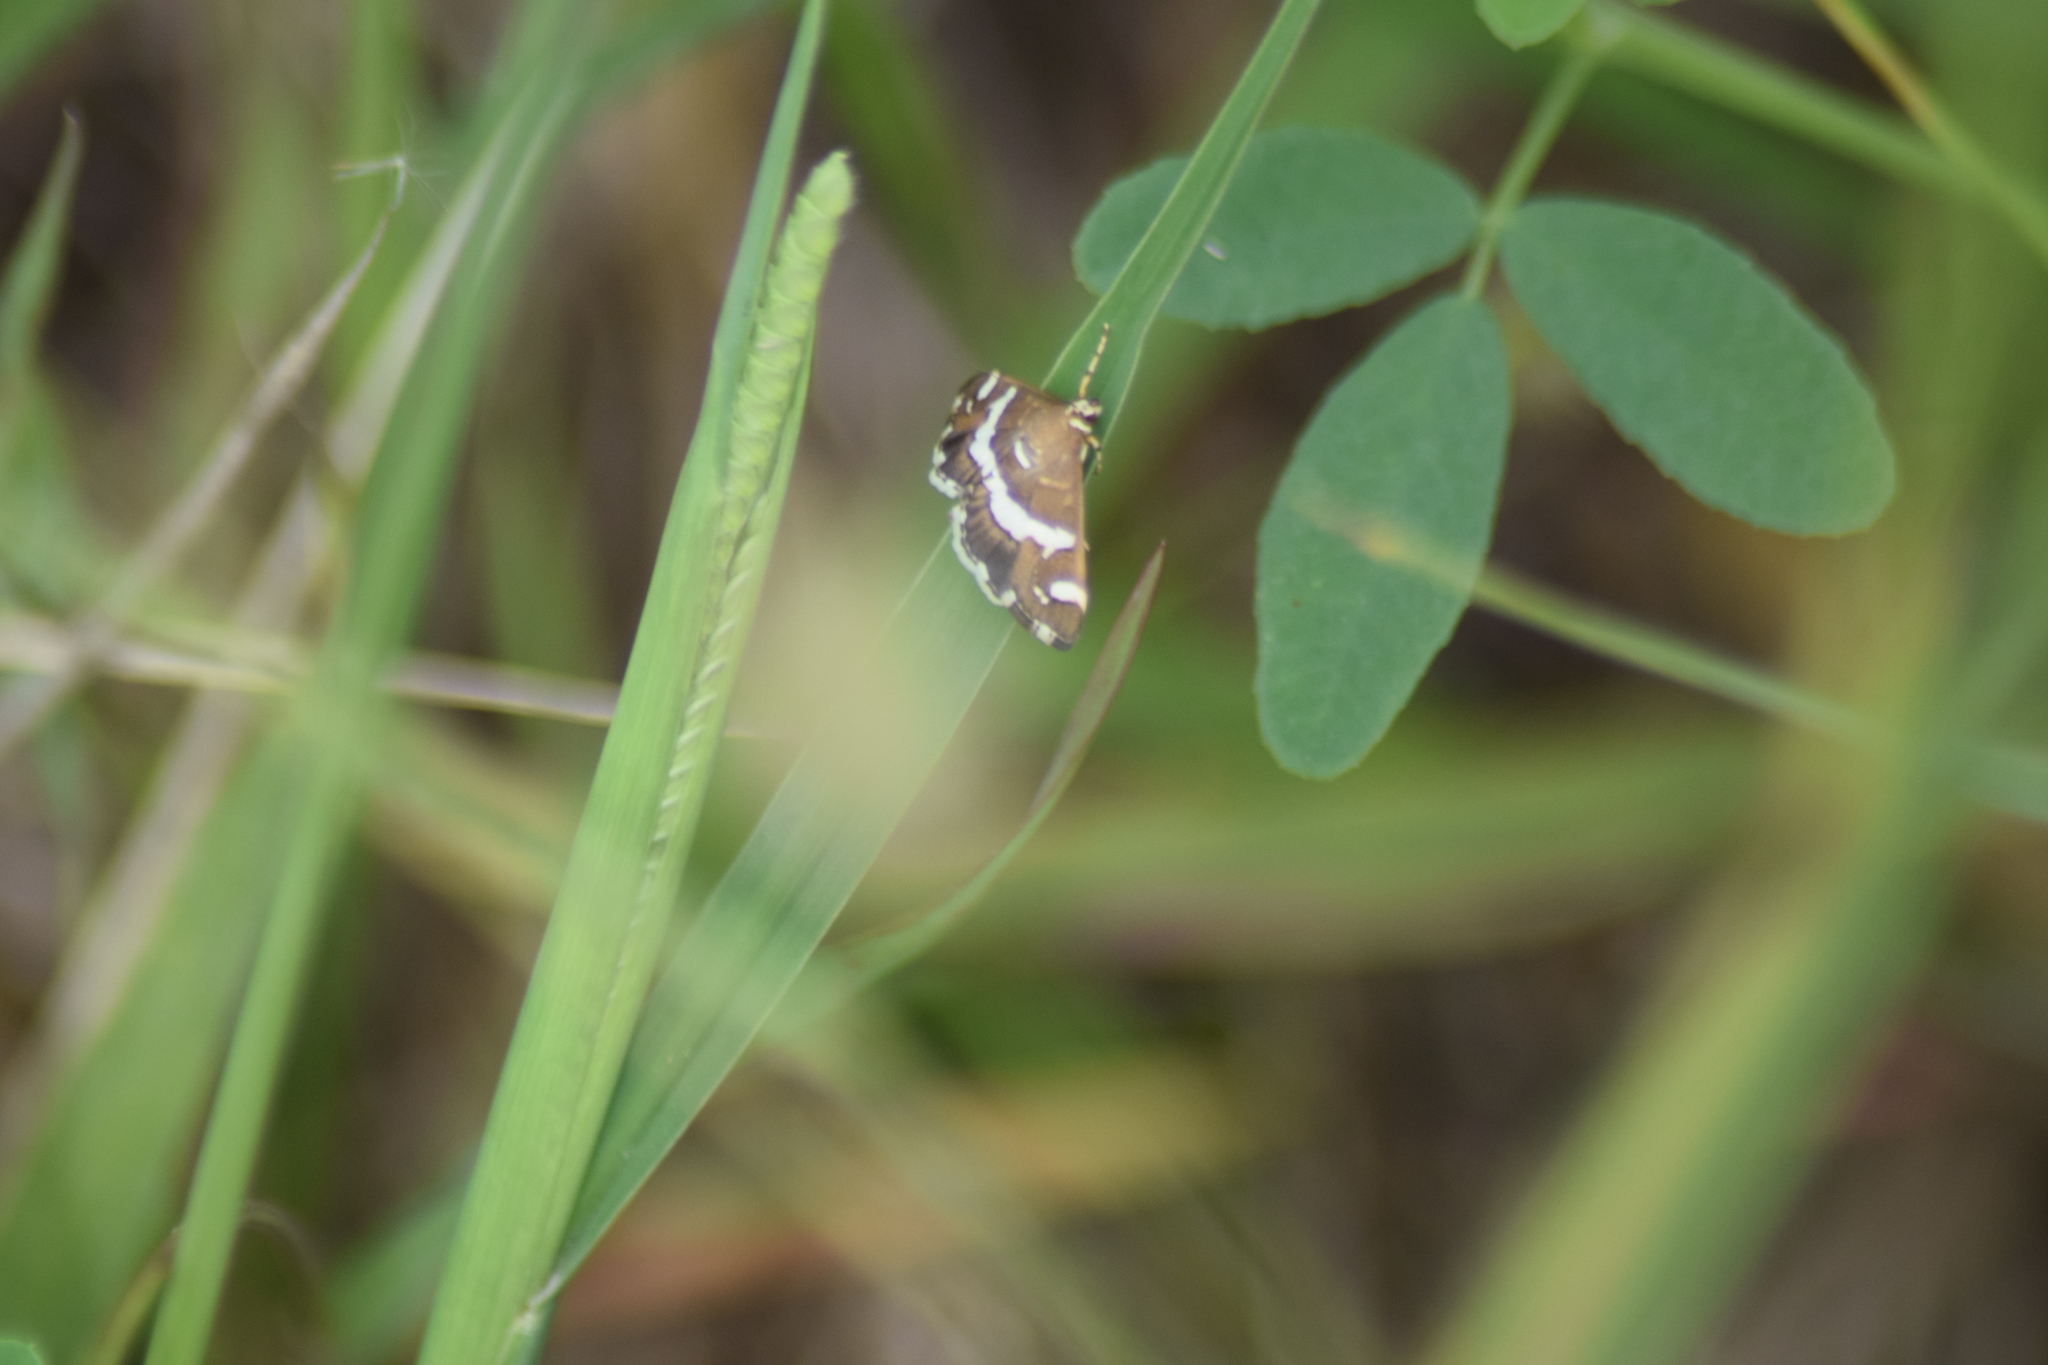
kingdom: Animalia
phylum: Arthropoda
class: Insecta
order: Lepidoptera
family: Crambidae
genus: Spoladea
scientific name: Spoladea recurvalis
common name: Beet webworm moth
